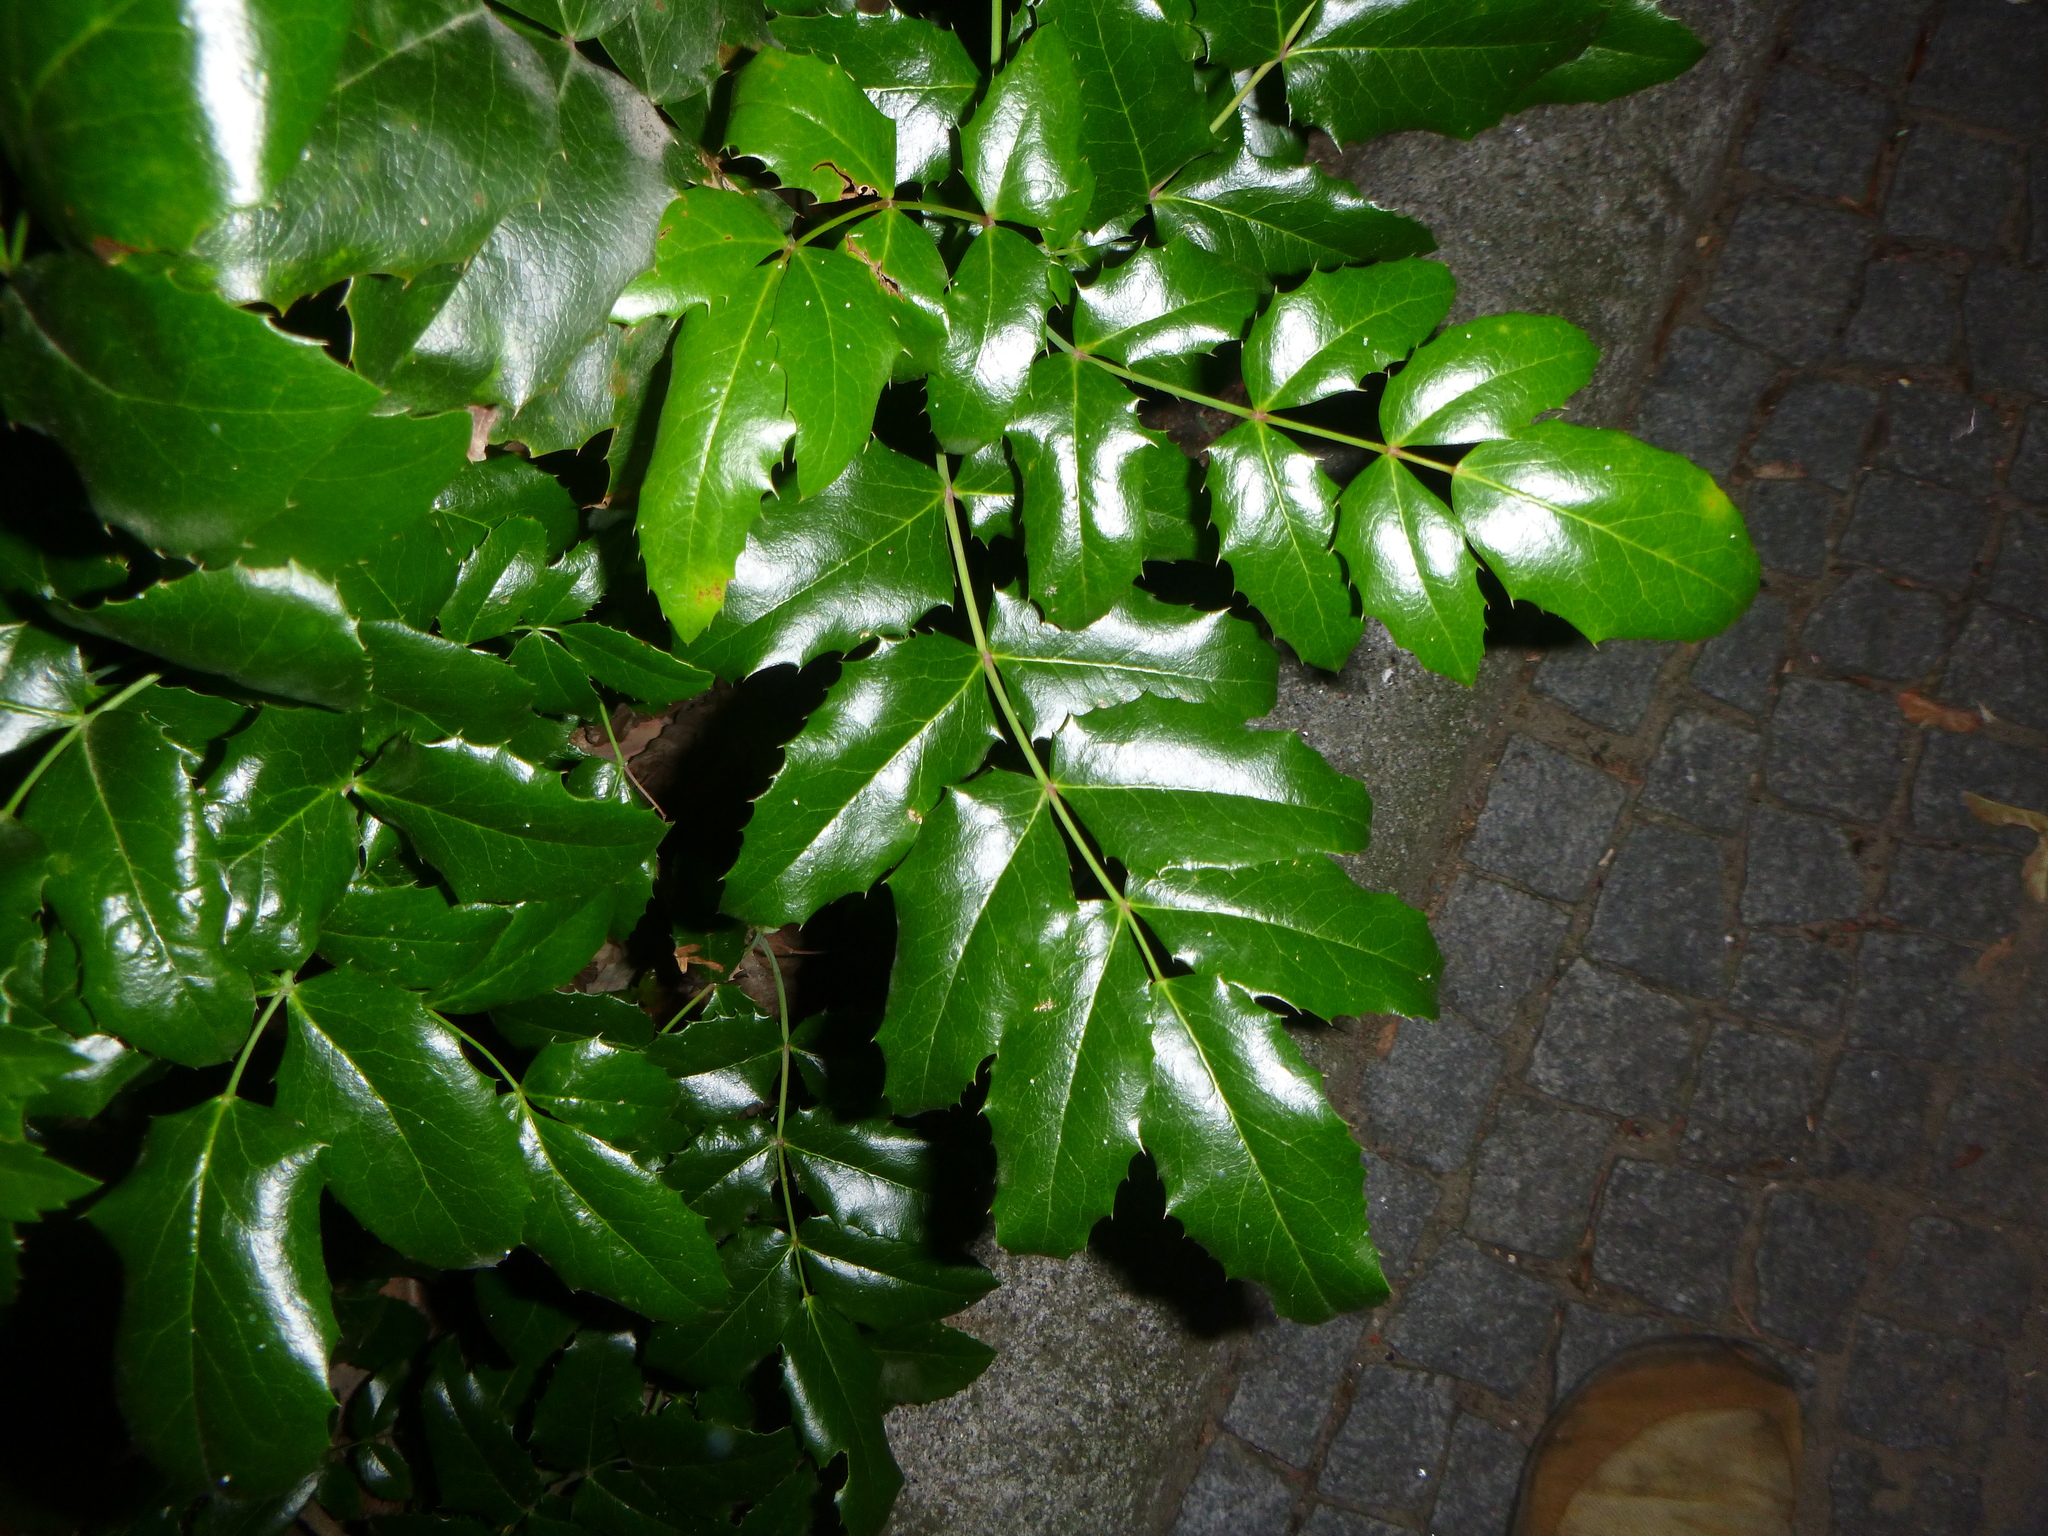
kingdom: Plantae
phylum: Tracheophyta
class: Magnoliopsida
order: Ranunculales
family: Berberidaceae
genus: Mahonia
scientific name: Mahonia aquifolium
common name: Oregon-grape
